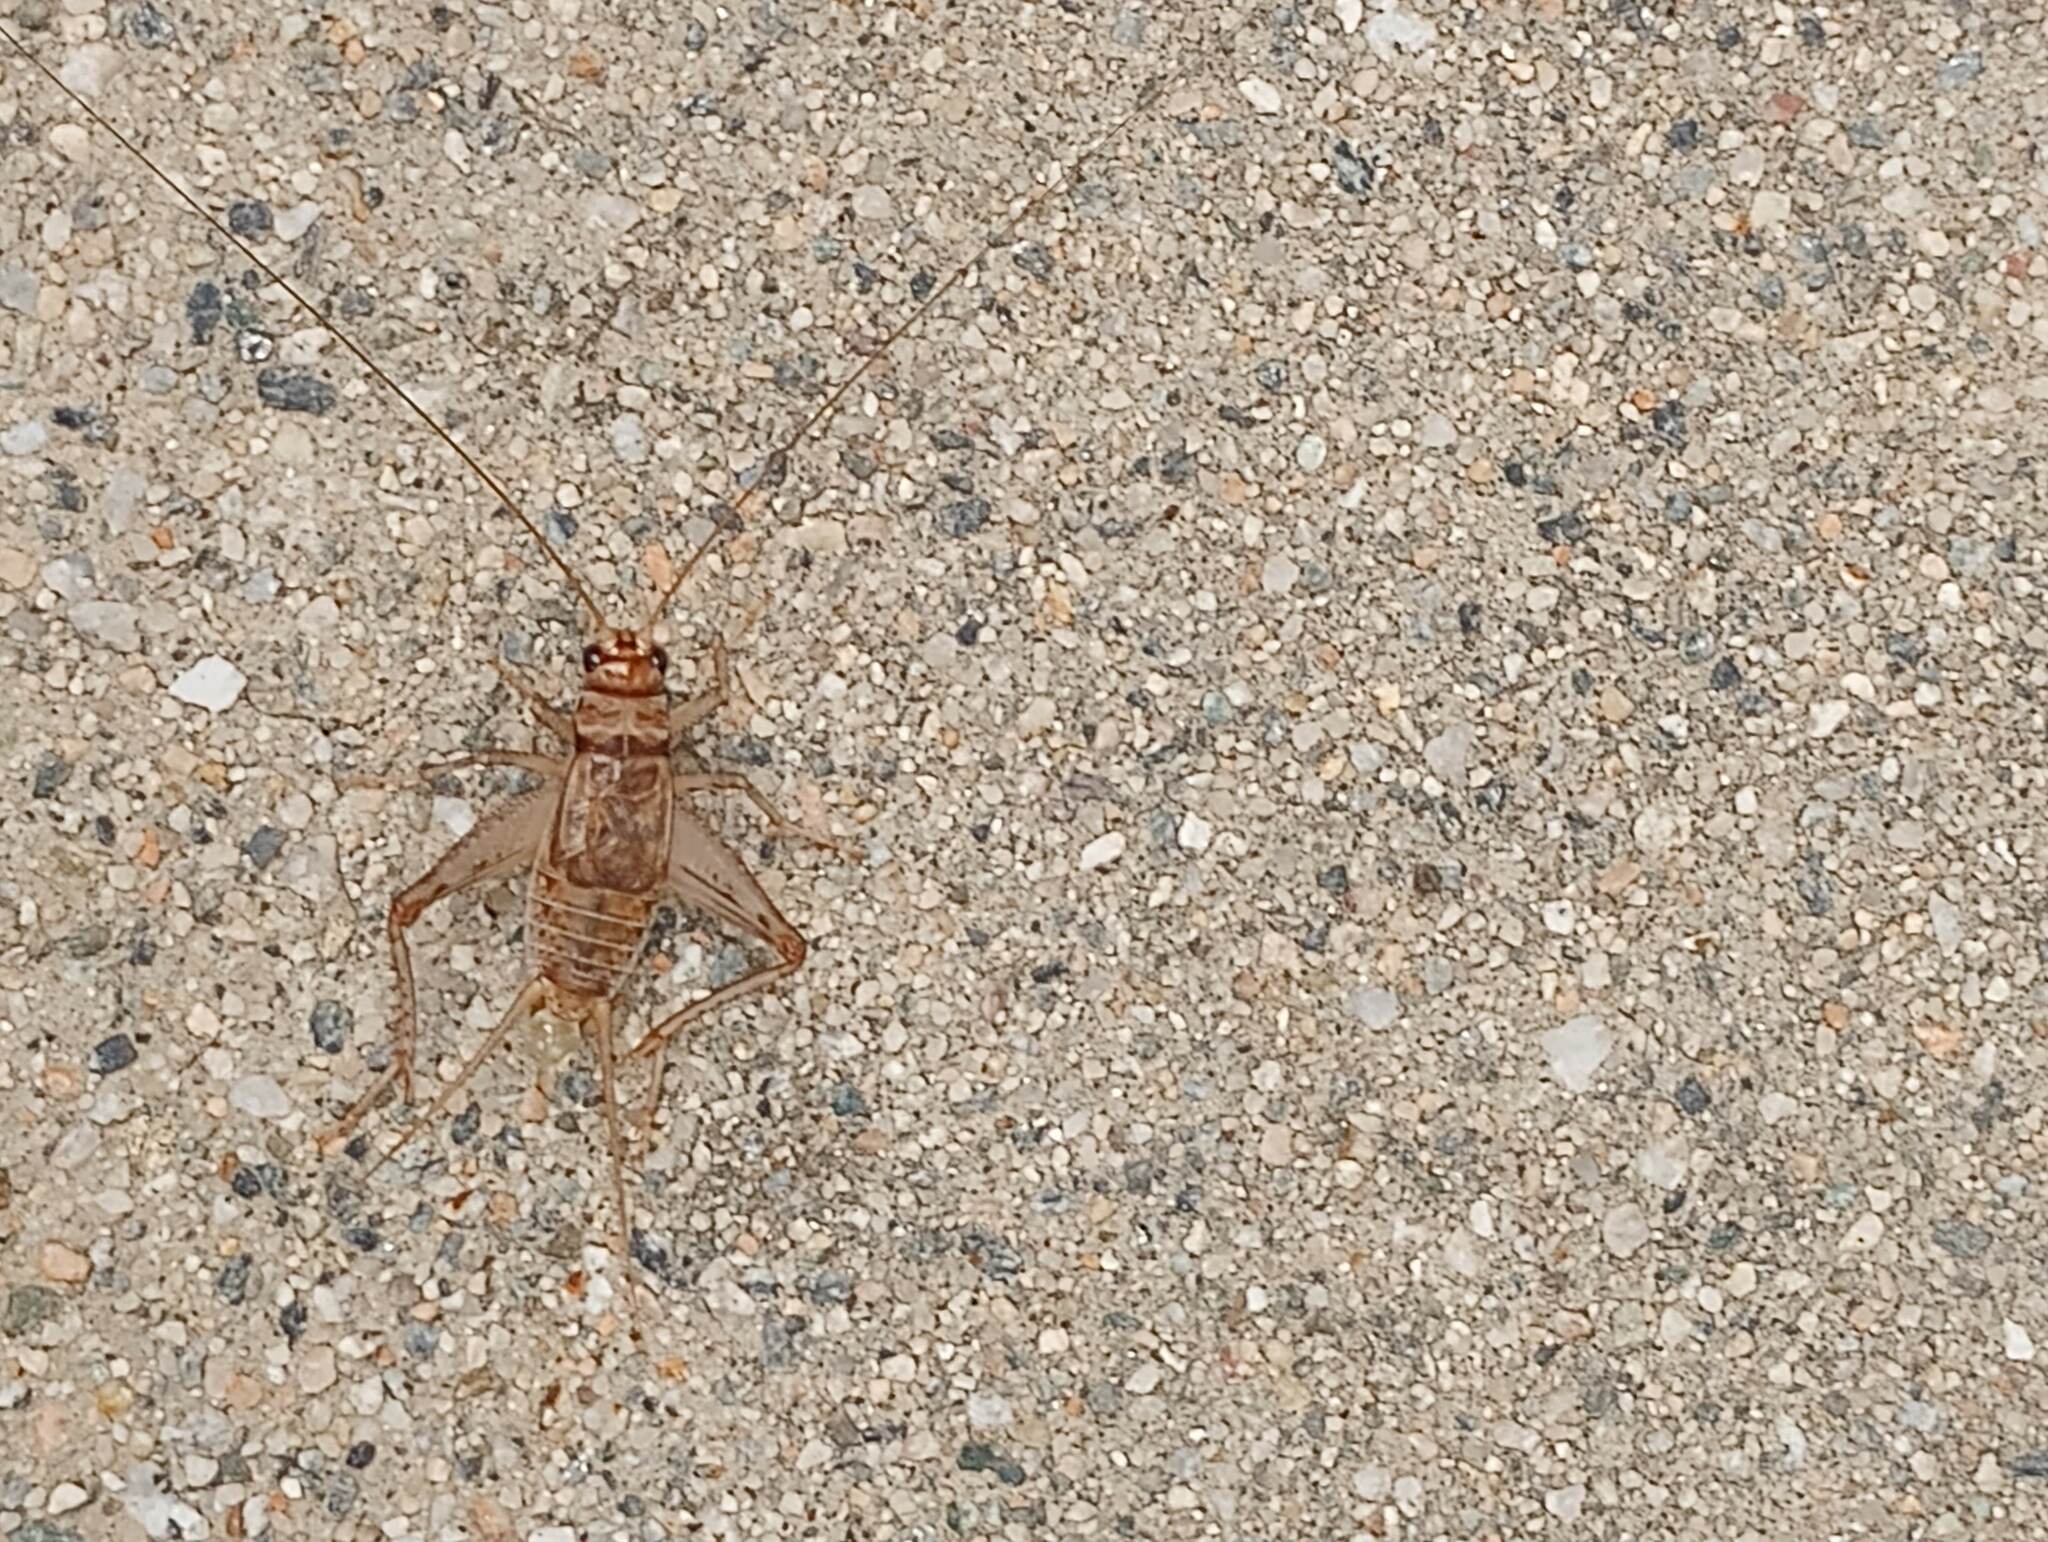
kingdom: Animalia
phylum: Arthropoda
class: Insecta
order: Orthoptera
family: Gryllidae
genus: Gryllodes
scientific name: Gryllodes sigillatus
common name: Tropical house cricket
